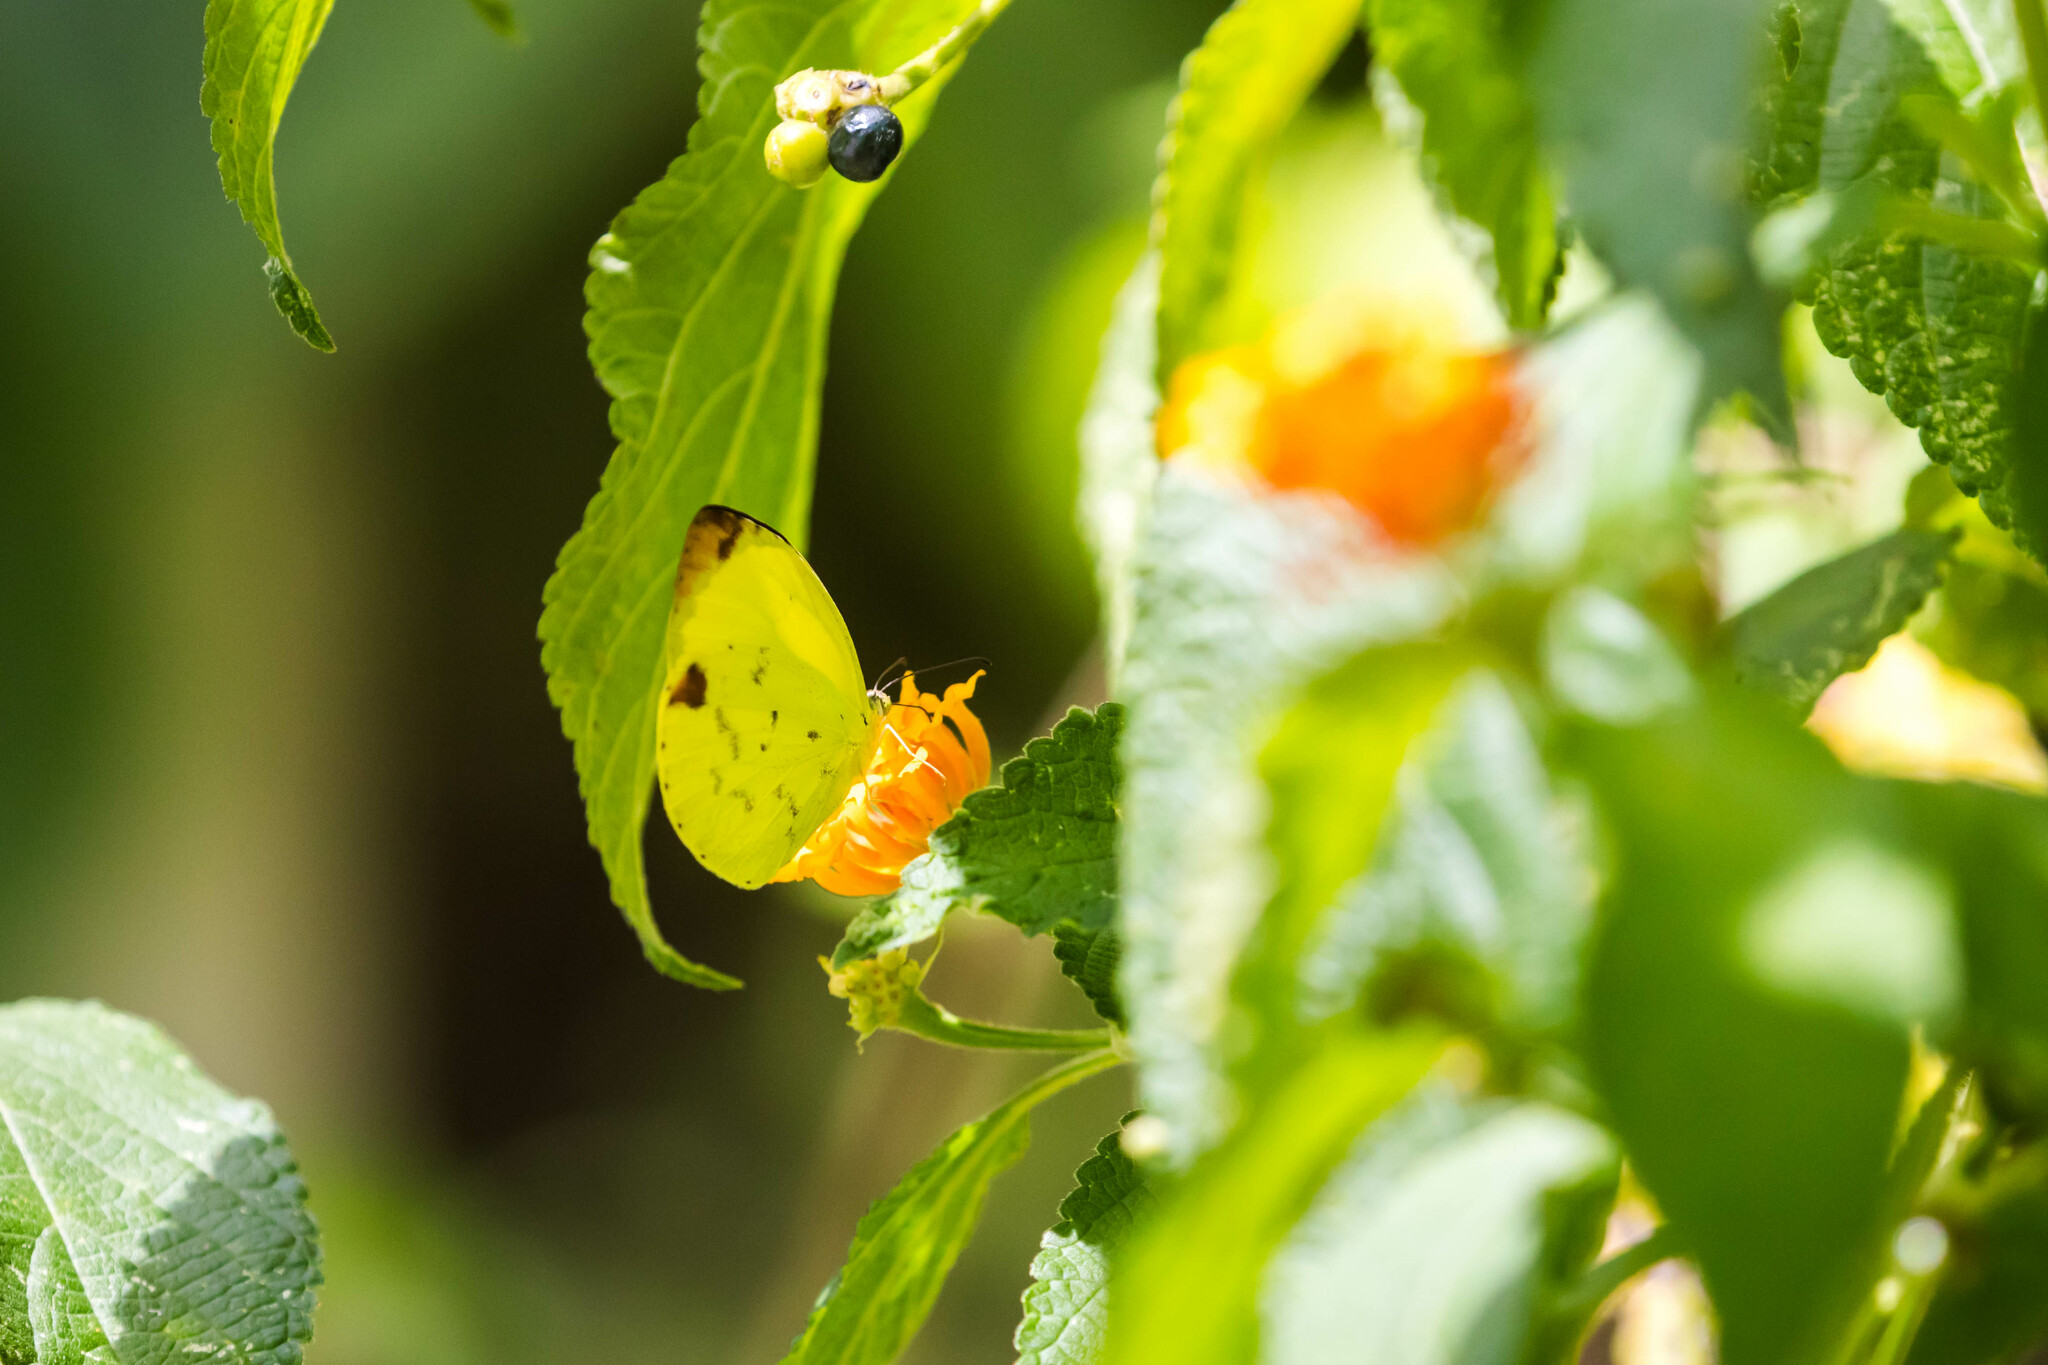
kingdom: Animalia
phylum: Arthropoda
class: Insecta
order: Lepidoptera
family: Pieridae
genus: Pyrisitia
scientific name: Pyrisitia leuce
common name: Hall's sulfur
